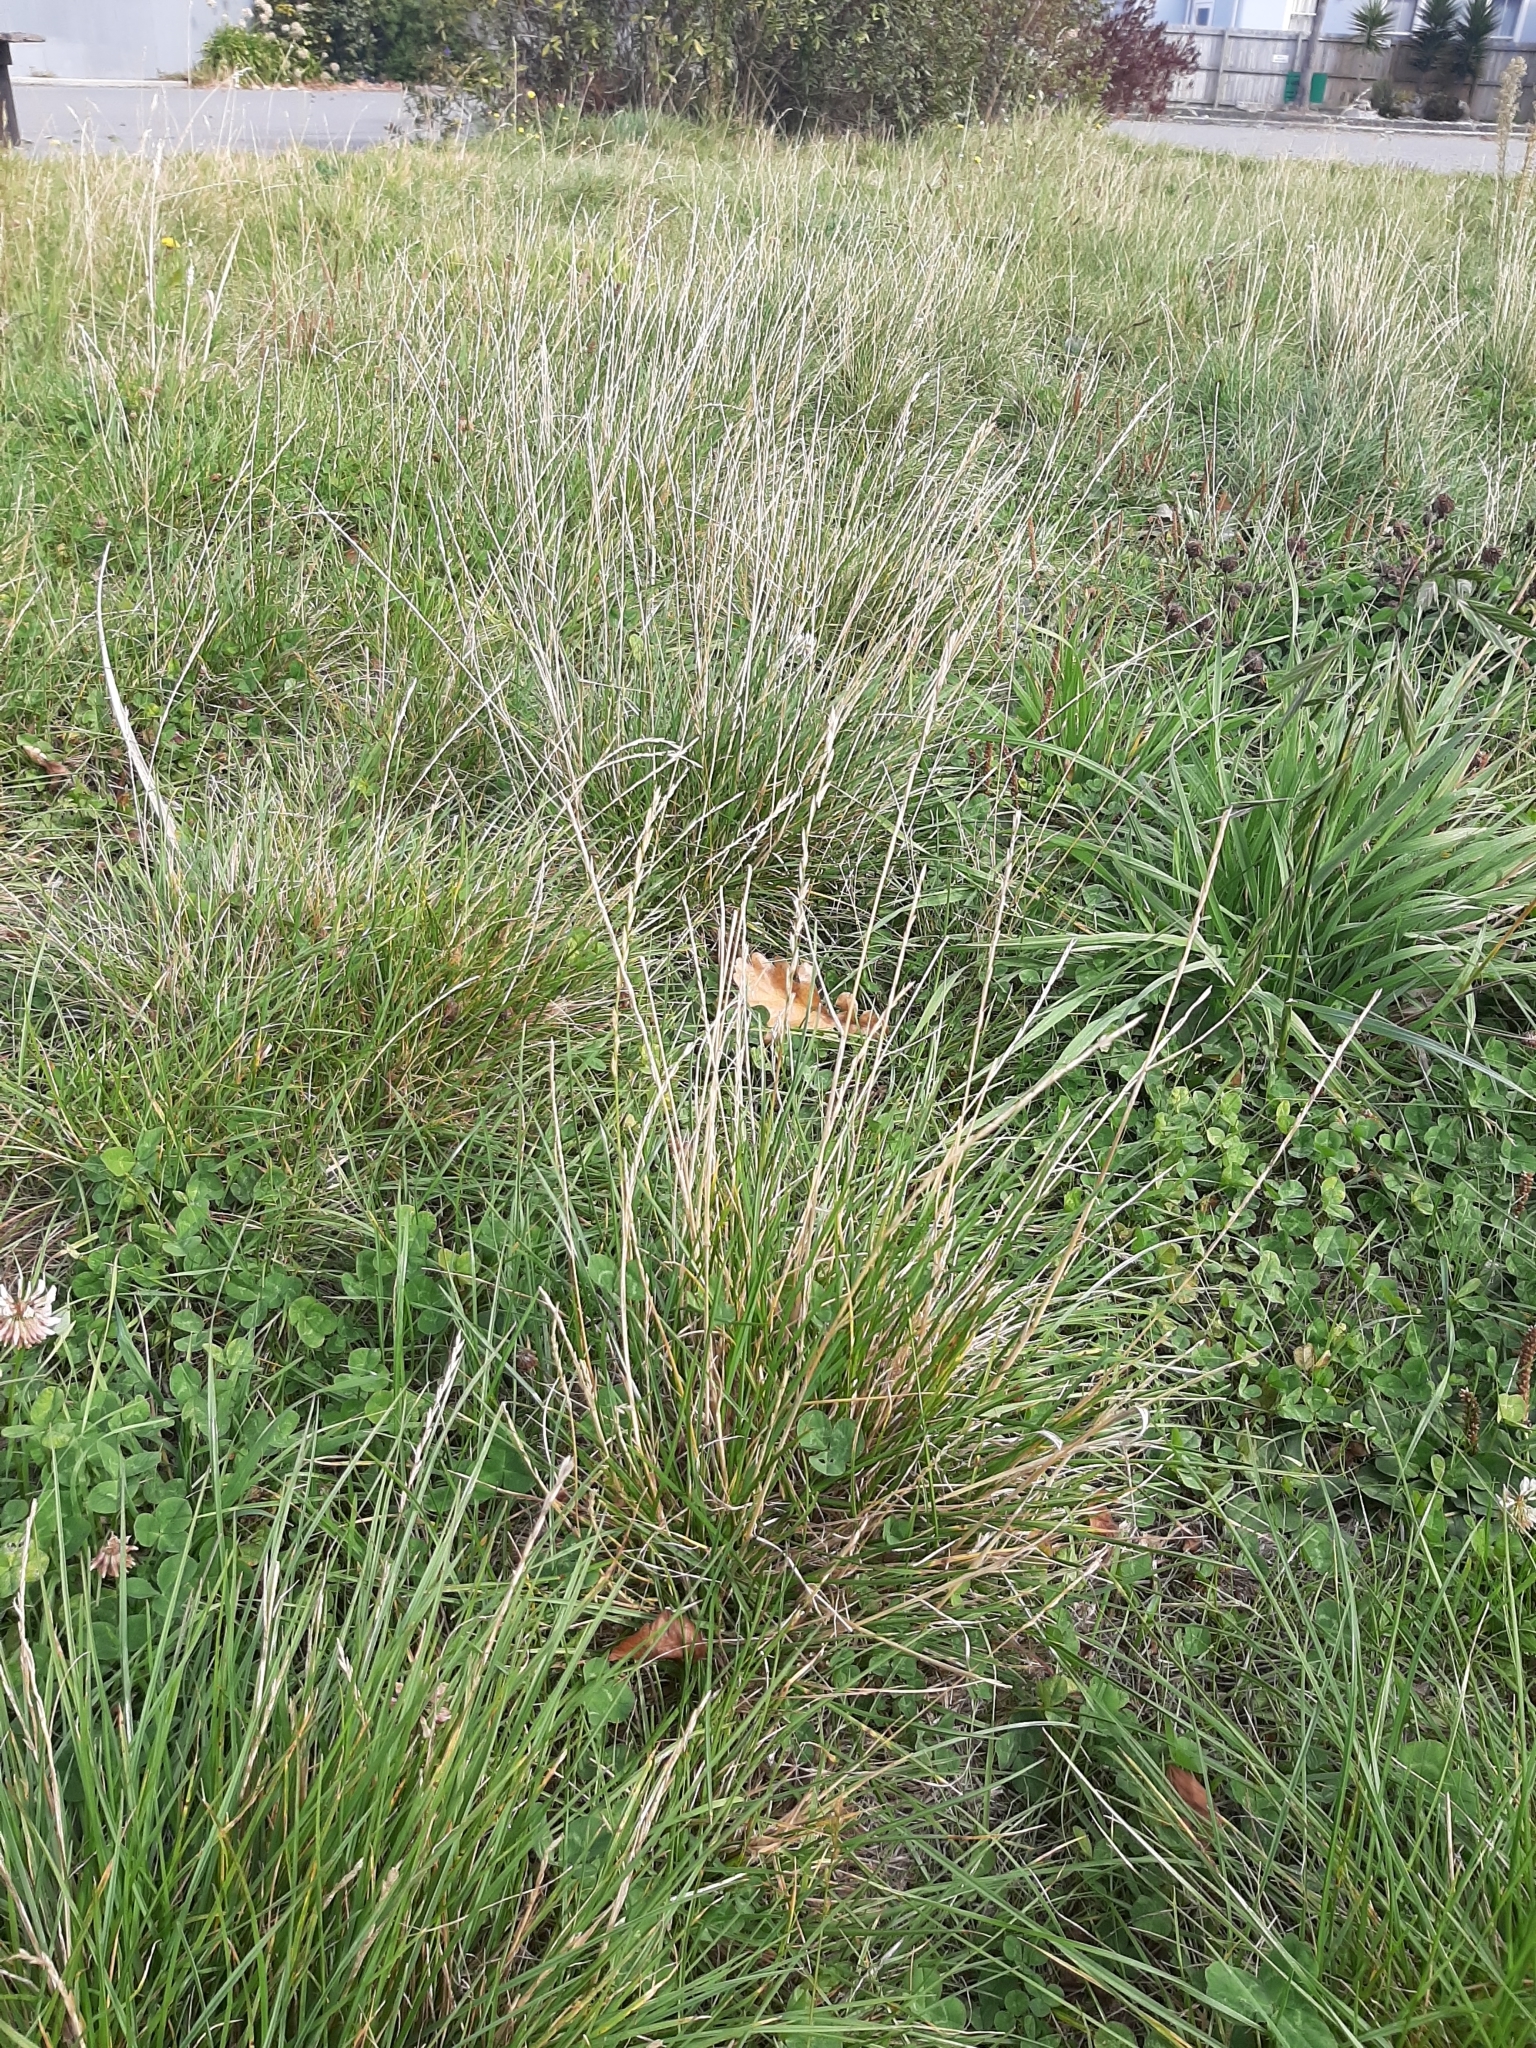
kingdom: Plantae
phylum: Tracheophyta
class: Liliopsida
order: Poales
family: Poaceae
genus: Lolium
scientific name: Lolium perenne
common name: Perennial ryegrass
